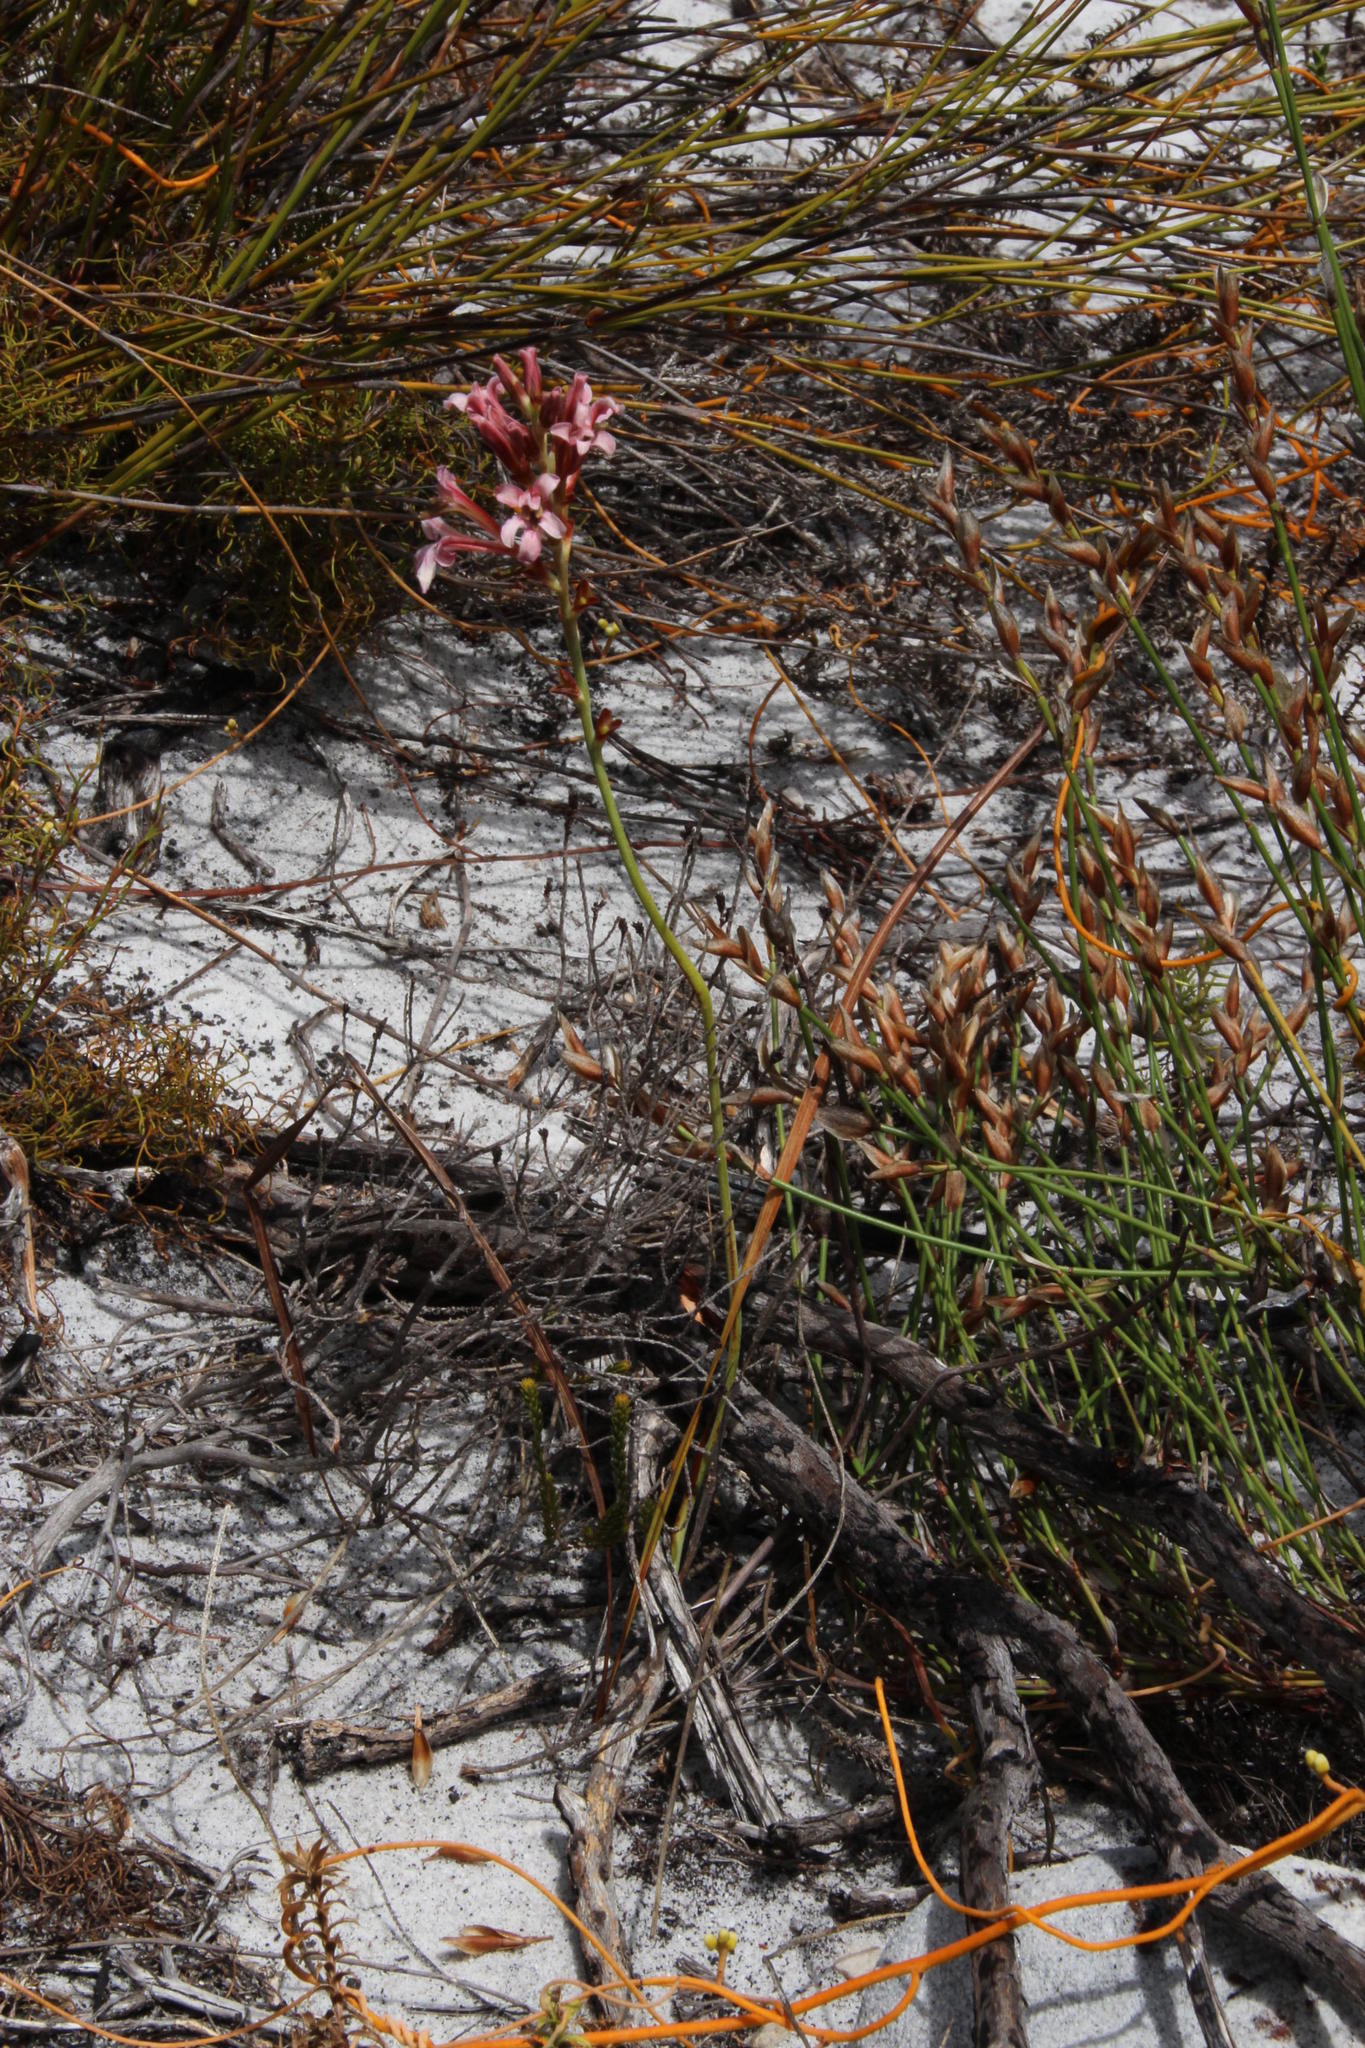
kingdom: Plantae
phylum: Tracheophyta
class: Liliopsida
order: Asparagales
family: Iridaceae
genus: Tritoniopsis
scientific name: Tritoniopsis dodii
